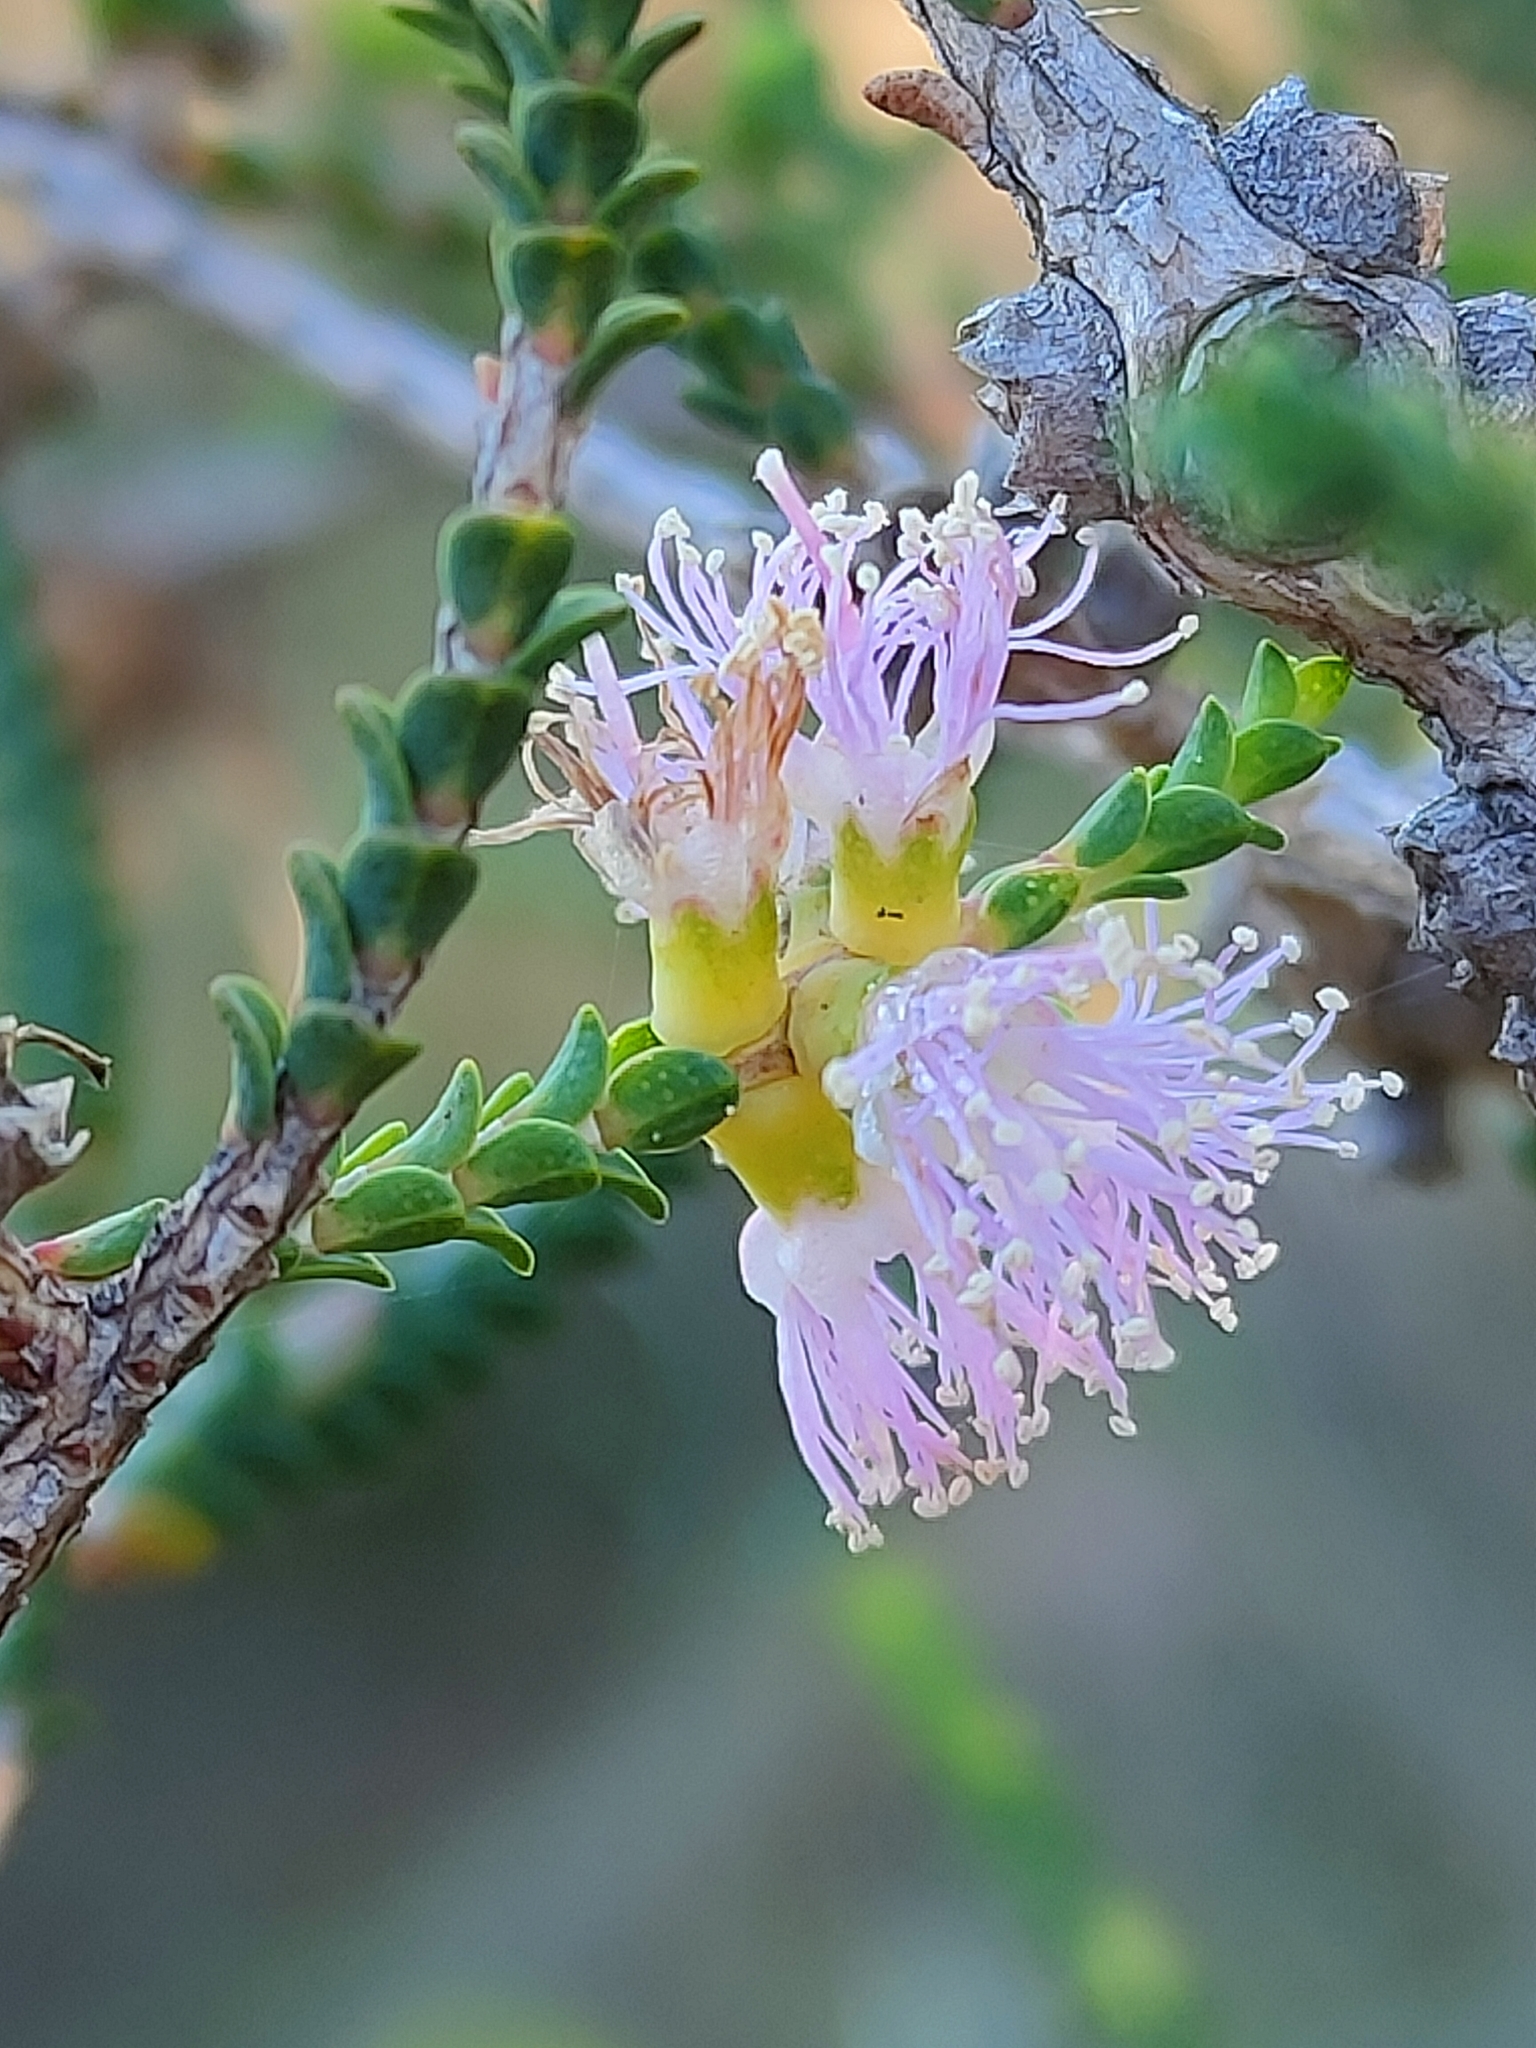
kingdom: Plantae
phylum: Tracheophyta
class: Magnoliopsida
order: Myrtales
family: Myrtaceae
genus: Melaleuca
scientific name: Melaleuca gibbosa
